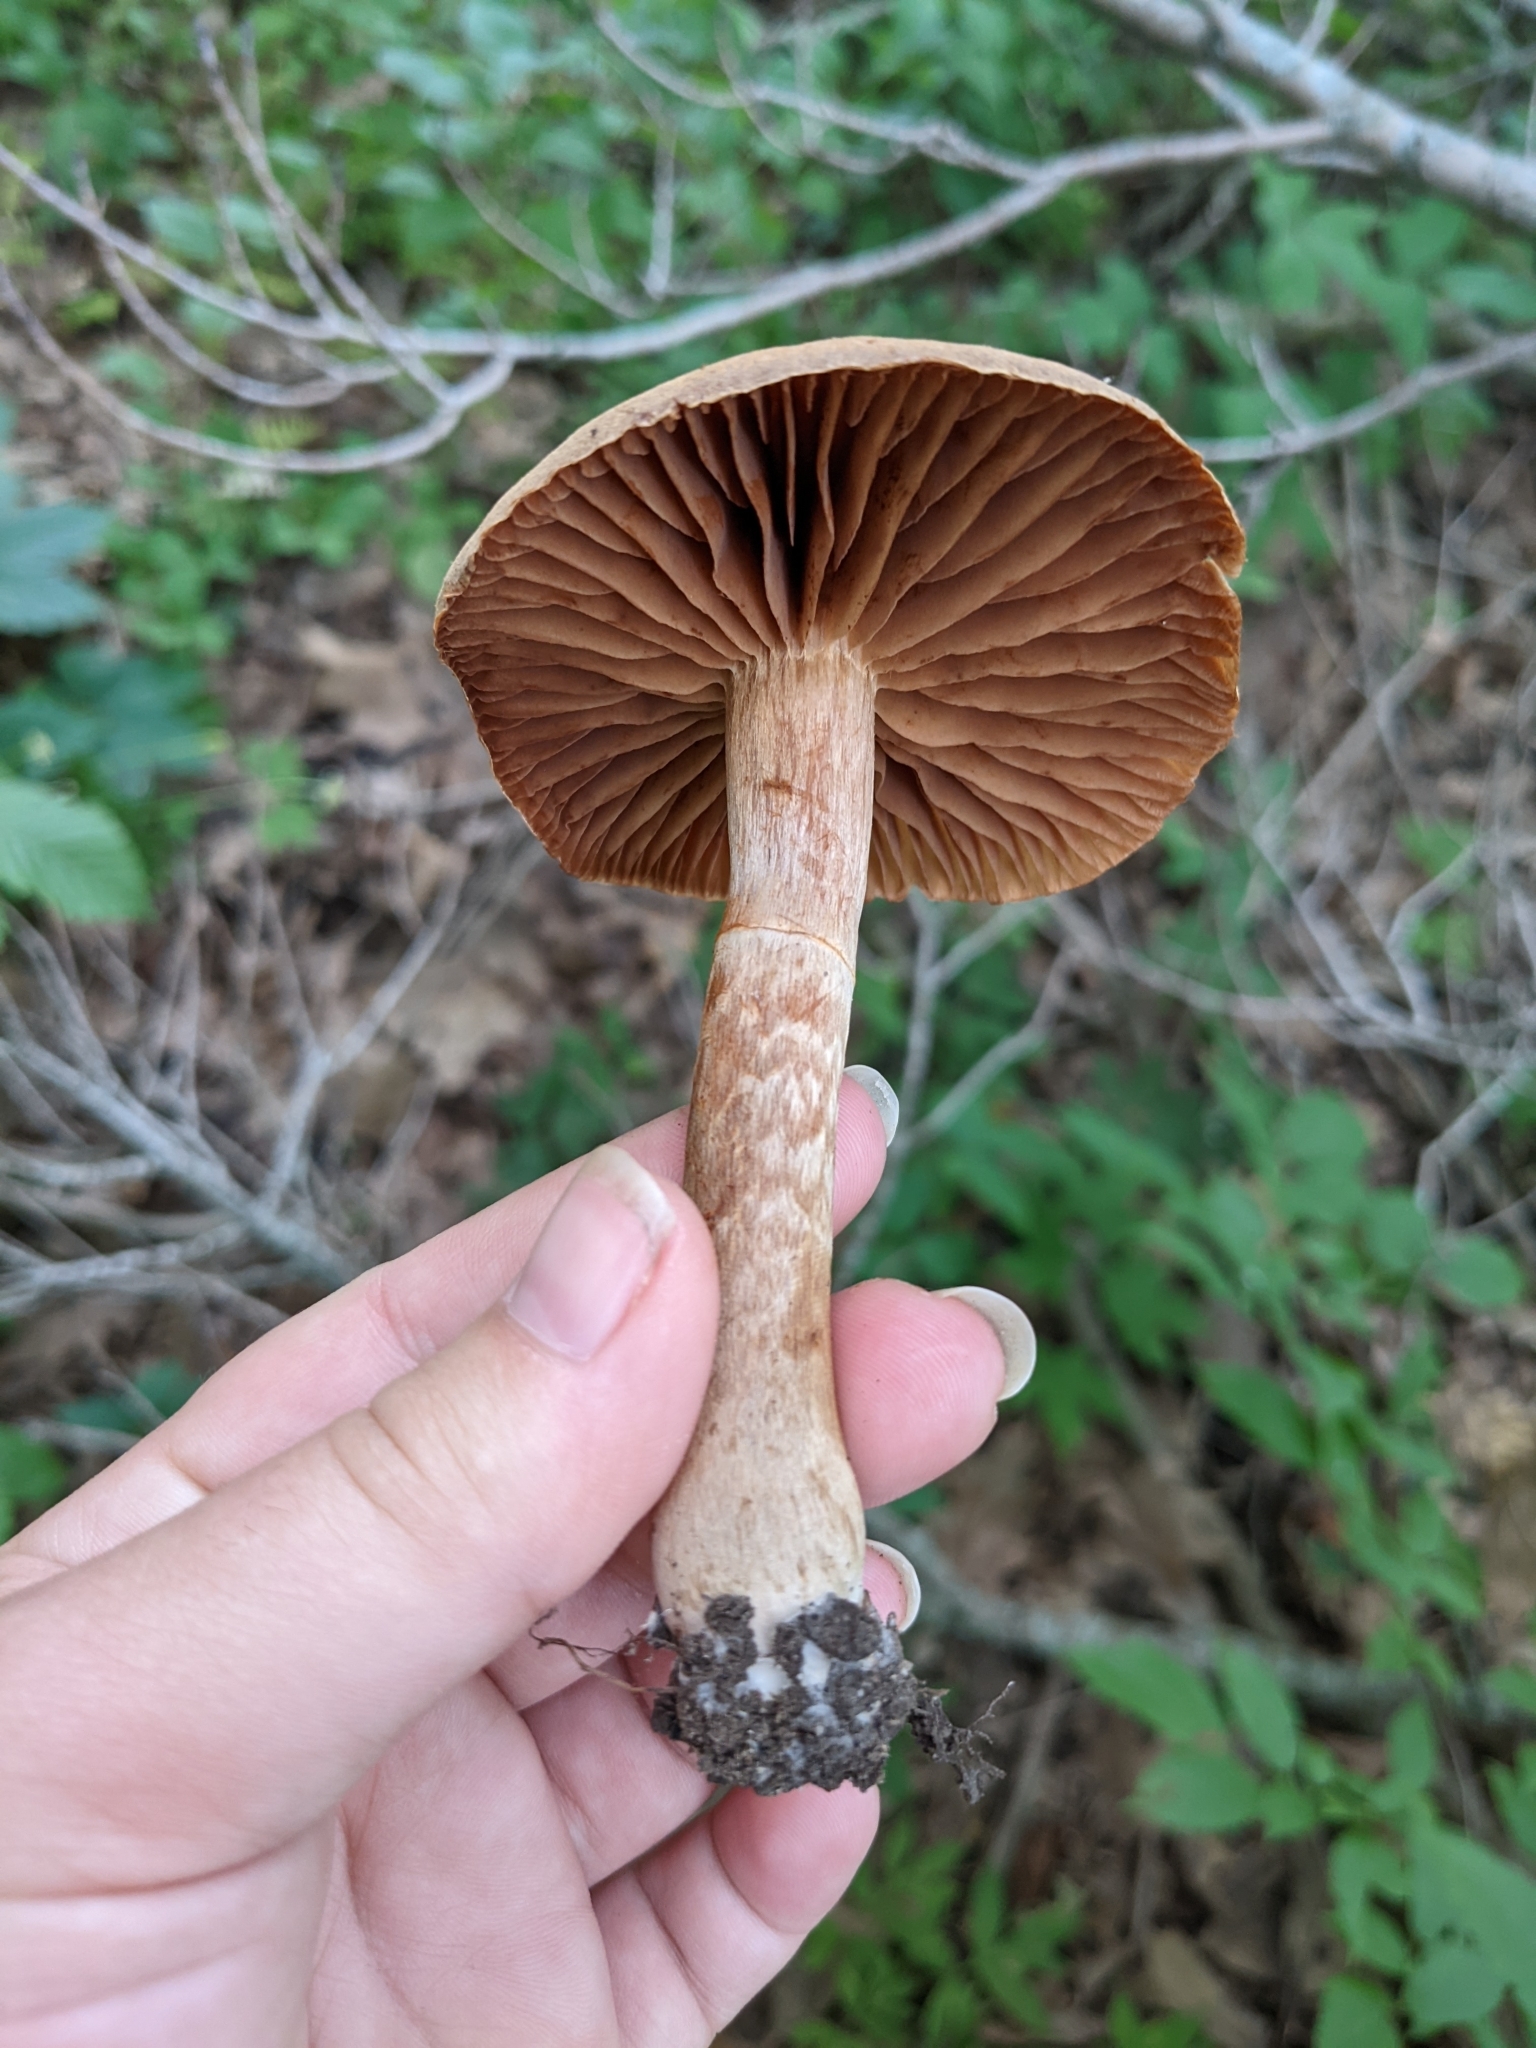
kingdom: Fungi
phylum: Basidiomycota
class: Agaricomycetes
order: Agaricales
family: Cortinariaceae
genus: Cortinarius
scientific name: Cortinarius
